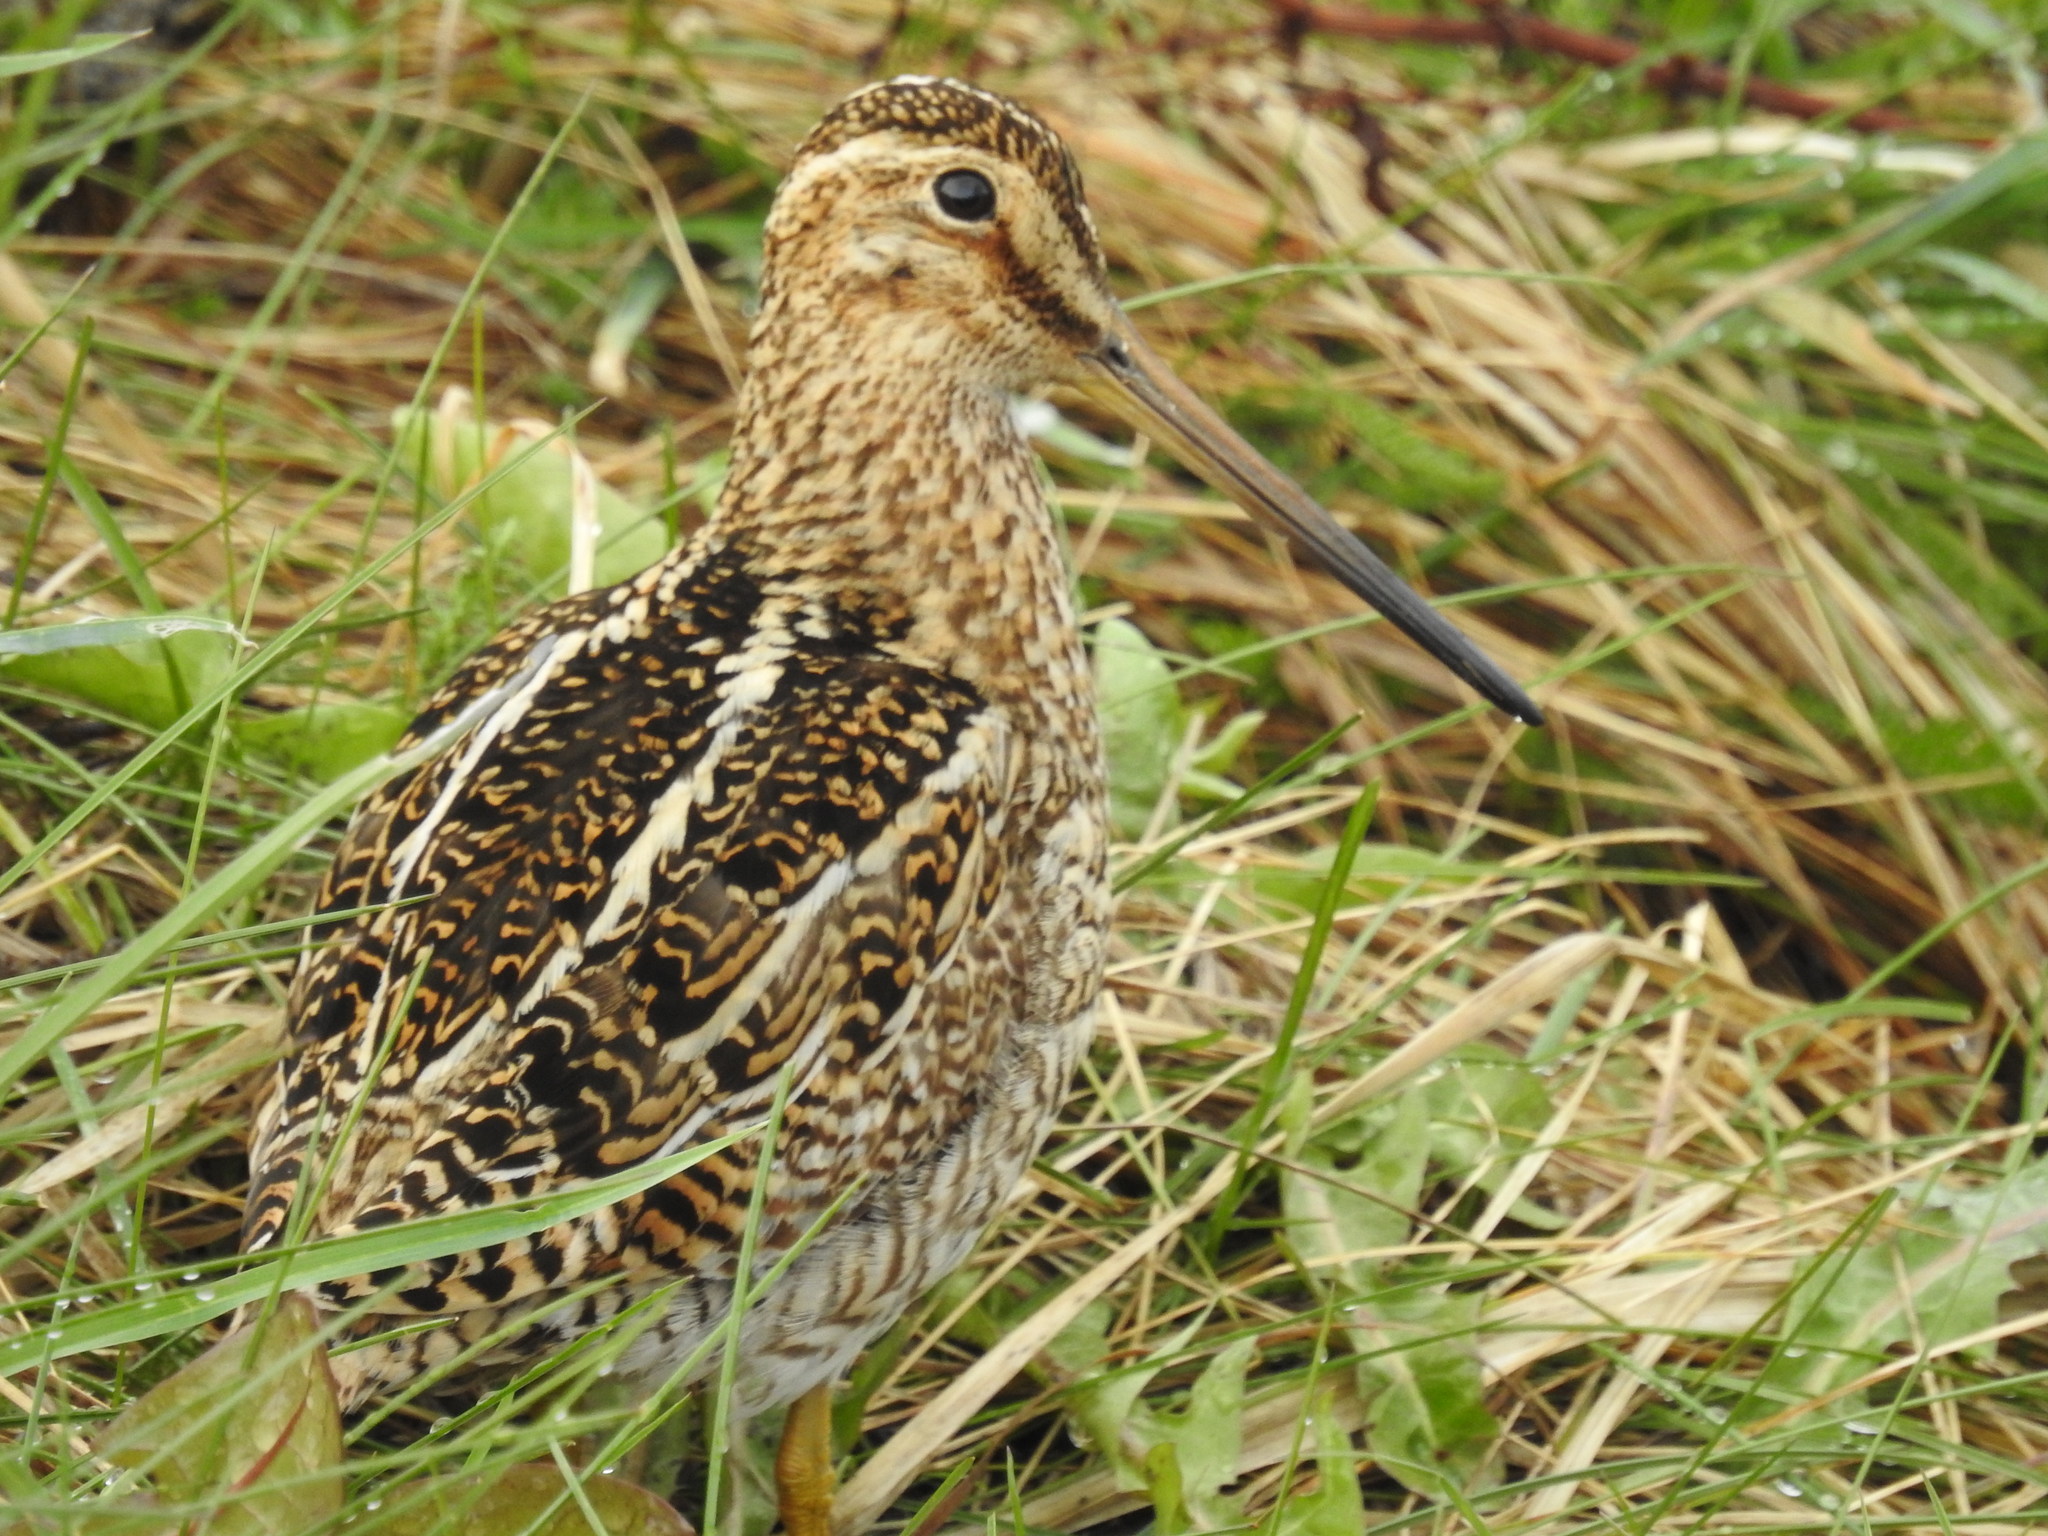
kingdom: Animalia
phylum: Chordata
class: Aves
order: Charadriiformes
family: Scolopacidae
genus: Gallinago
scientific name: Gallinago magellanica
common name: Magellanic snipe
